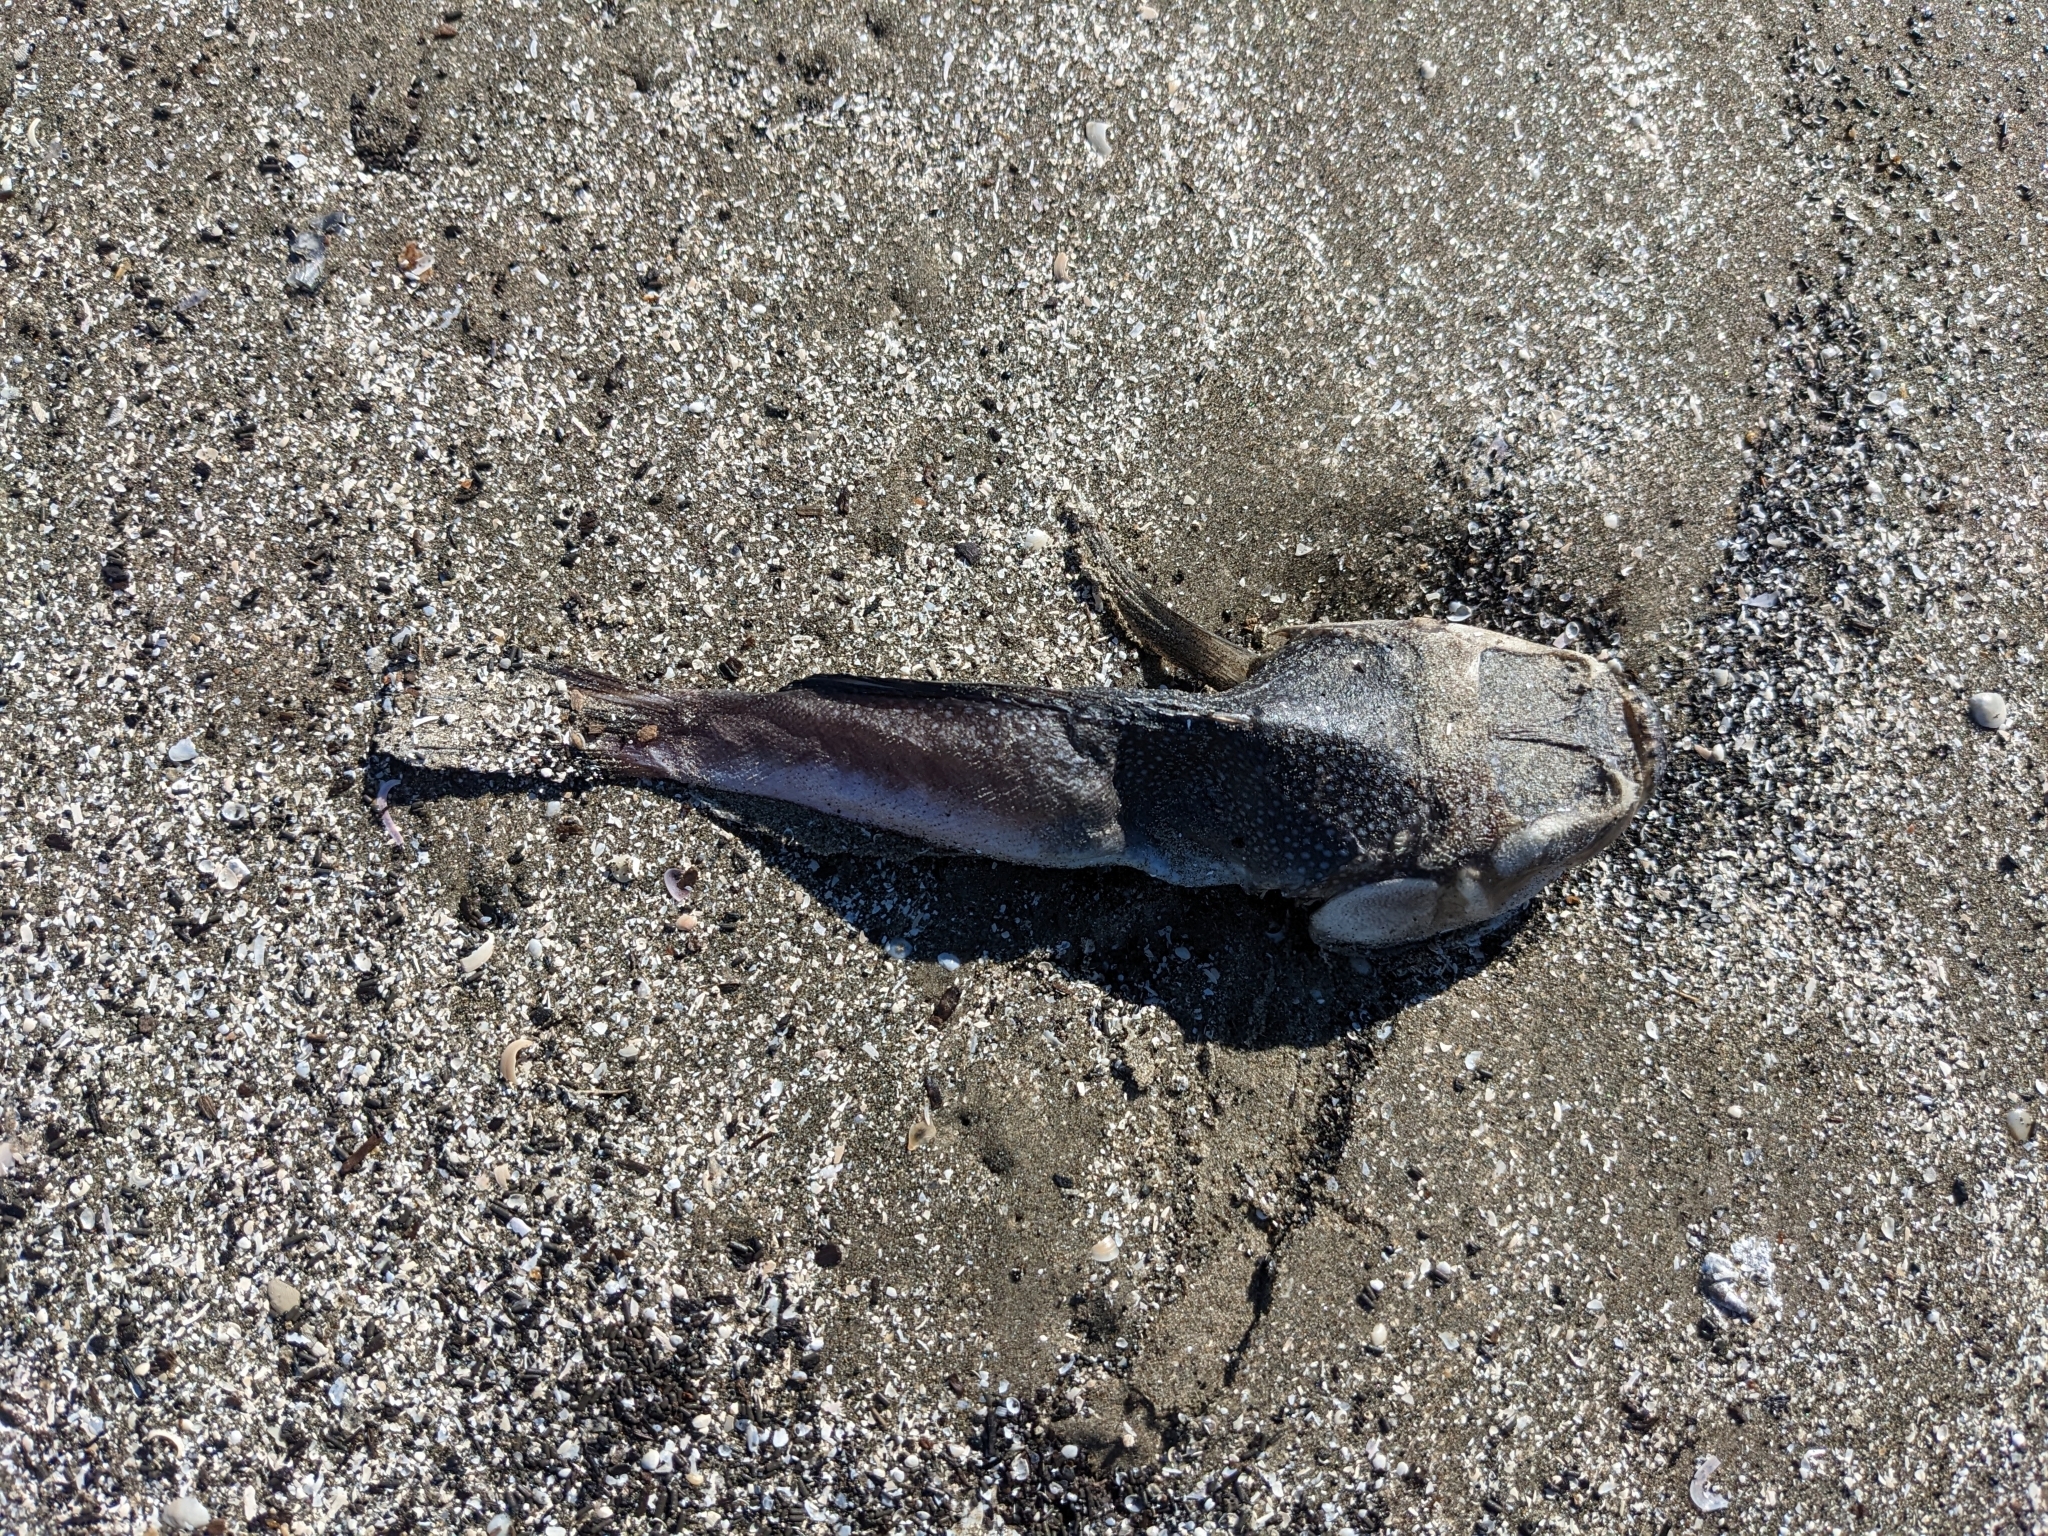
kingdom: Animalia
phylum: Chordata
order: Perciformes
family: Uranoscopidae
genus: Astroscopus
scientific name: Astroscopus y-graecum
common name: Southern stargazer
